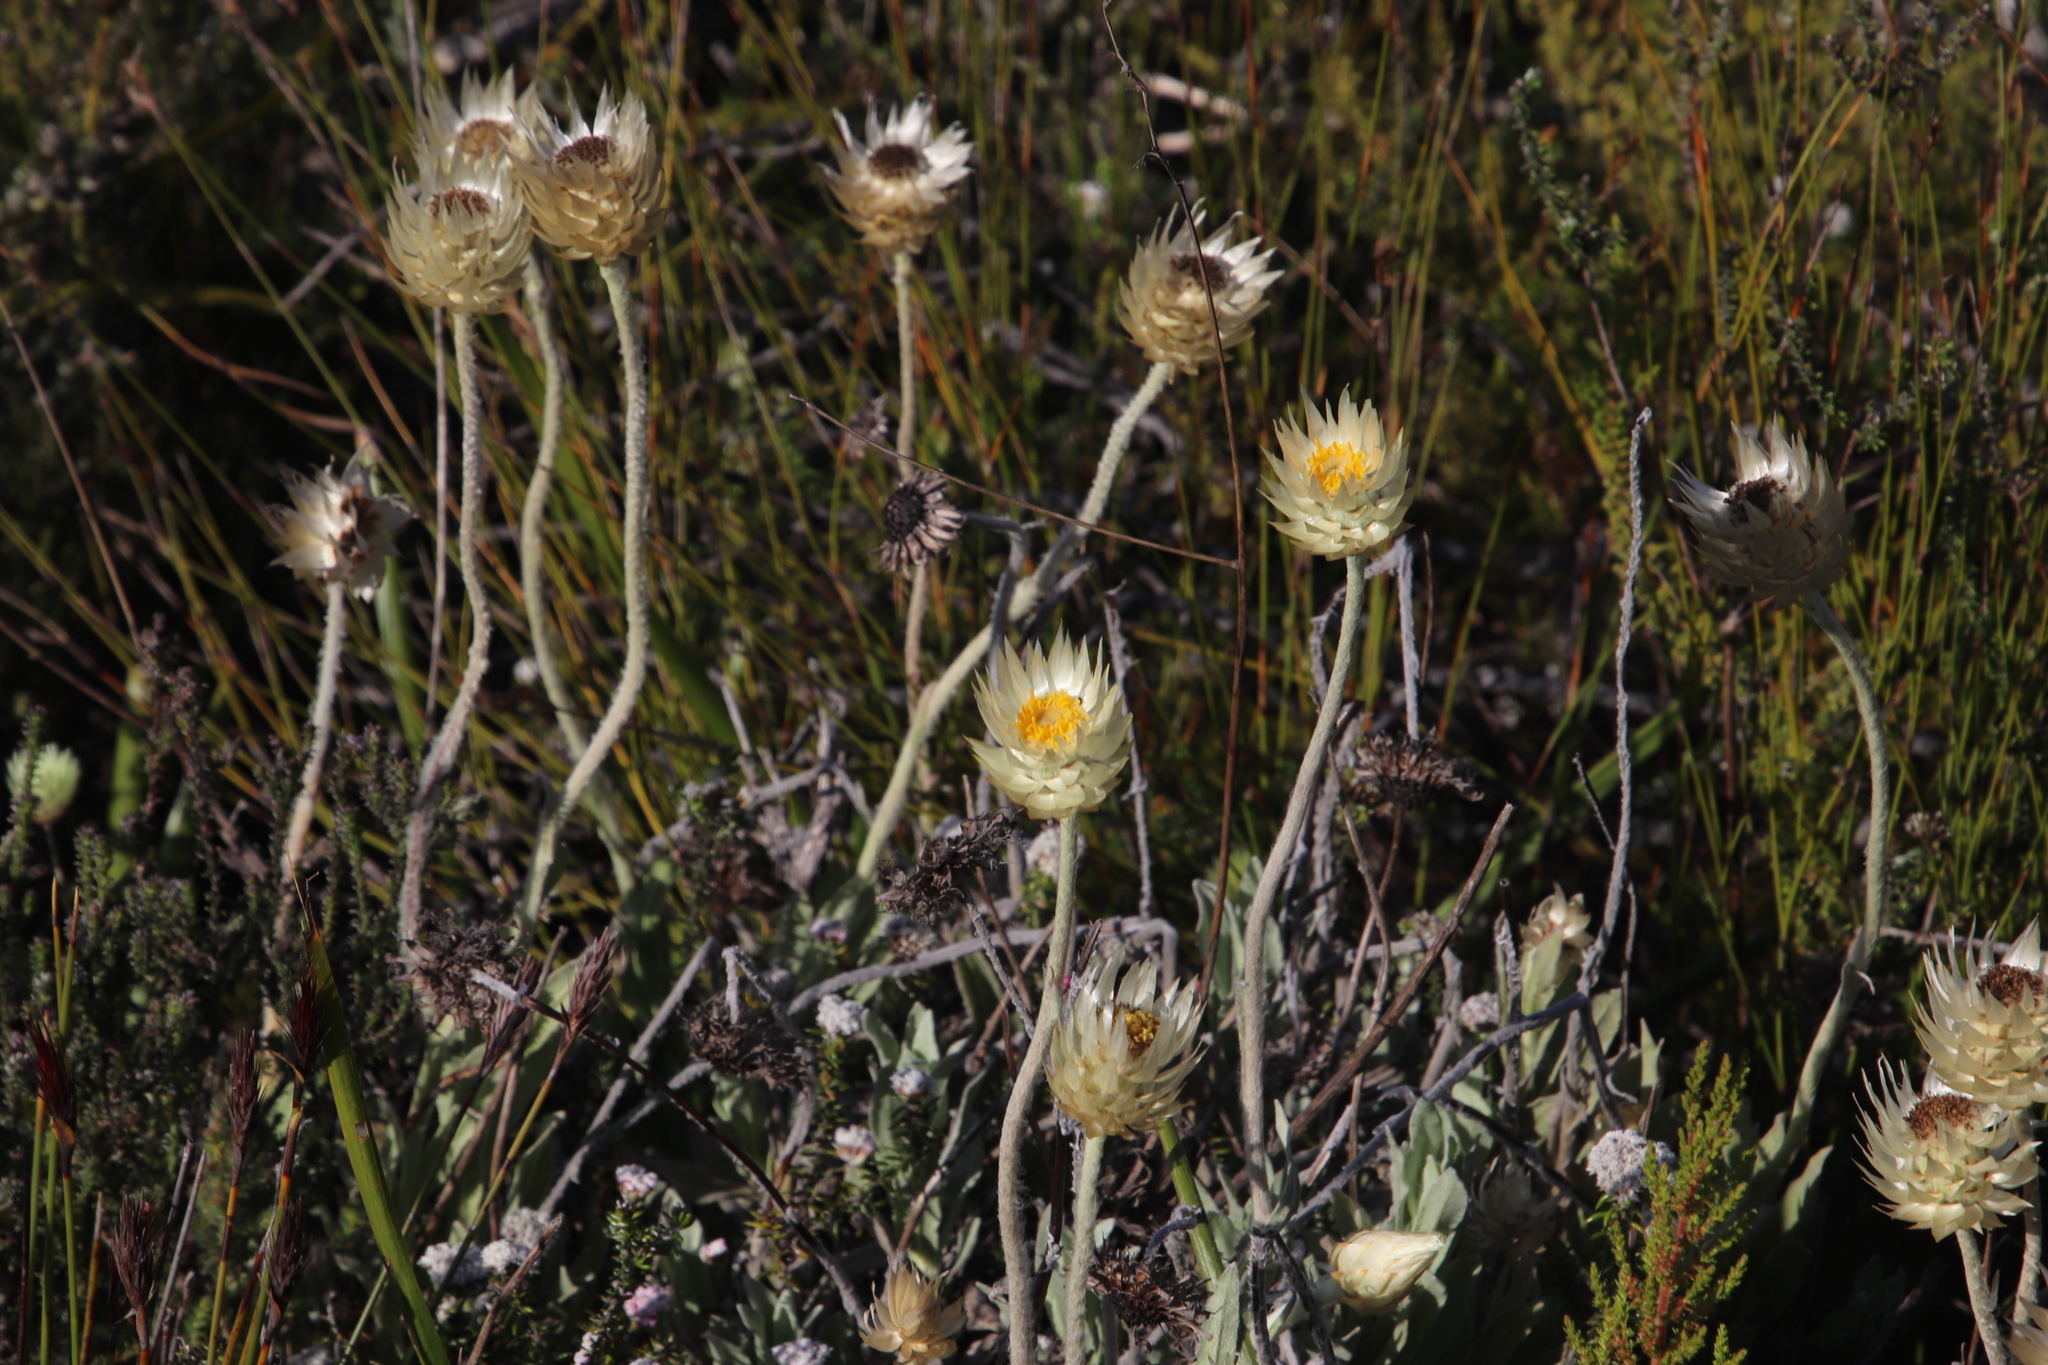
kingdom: Plantae
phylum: Tracheophyta
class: Magnoliopsida
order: Asterales
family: Asteraceae
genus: Syncarpha
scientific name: Syncarpha speciosissima
